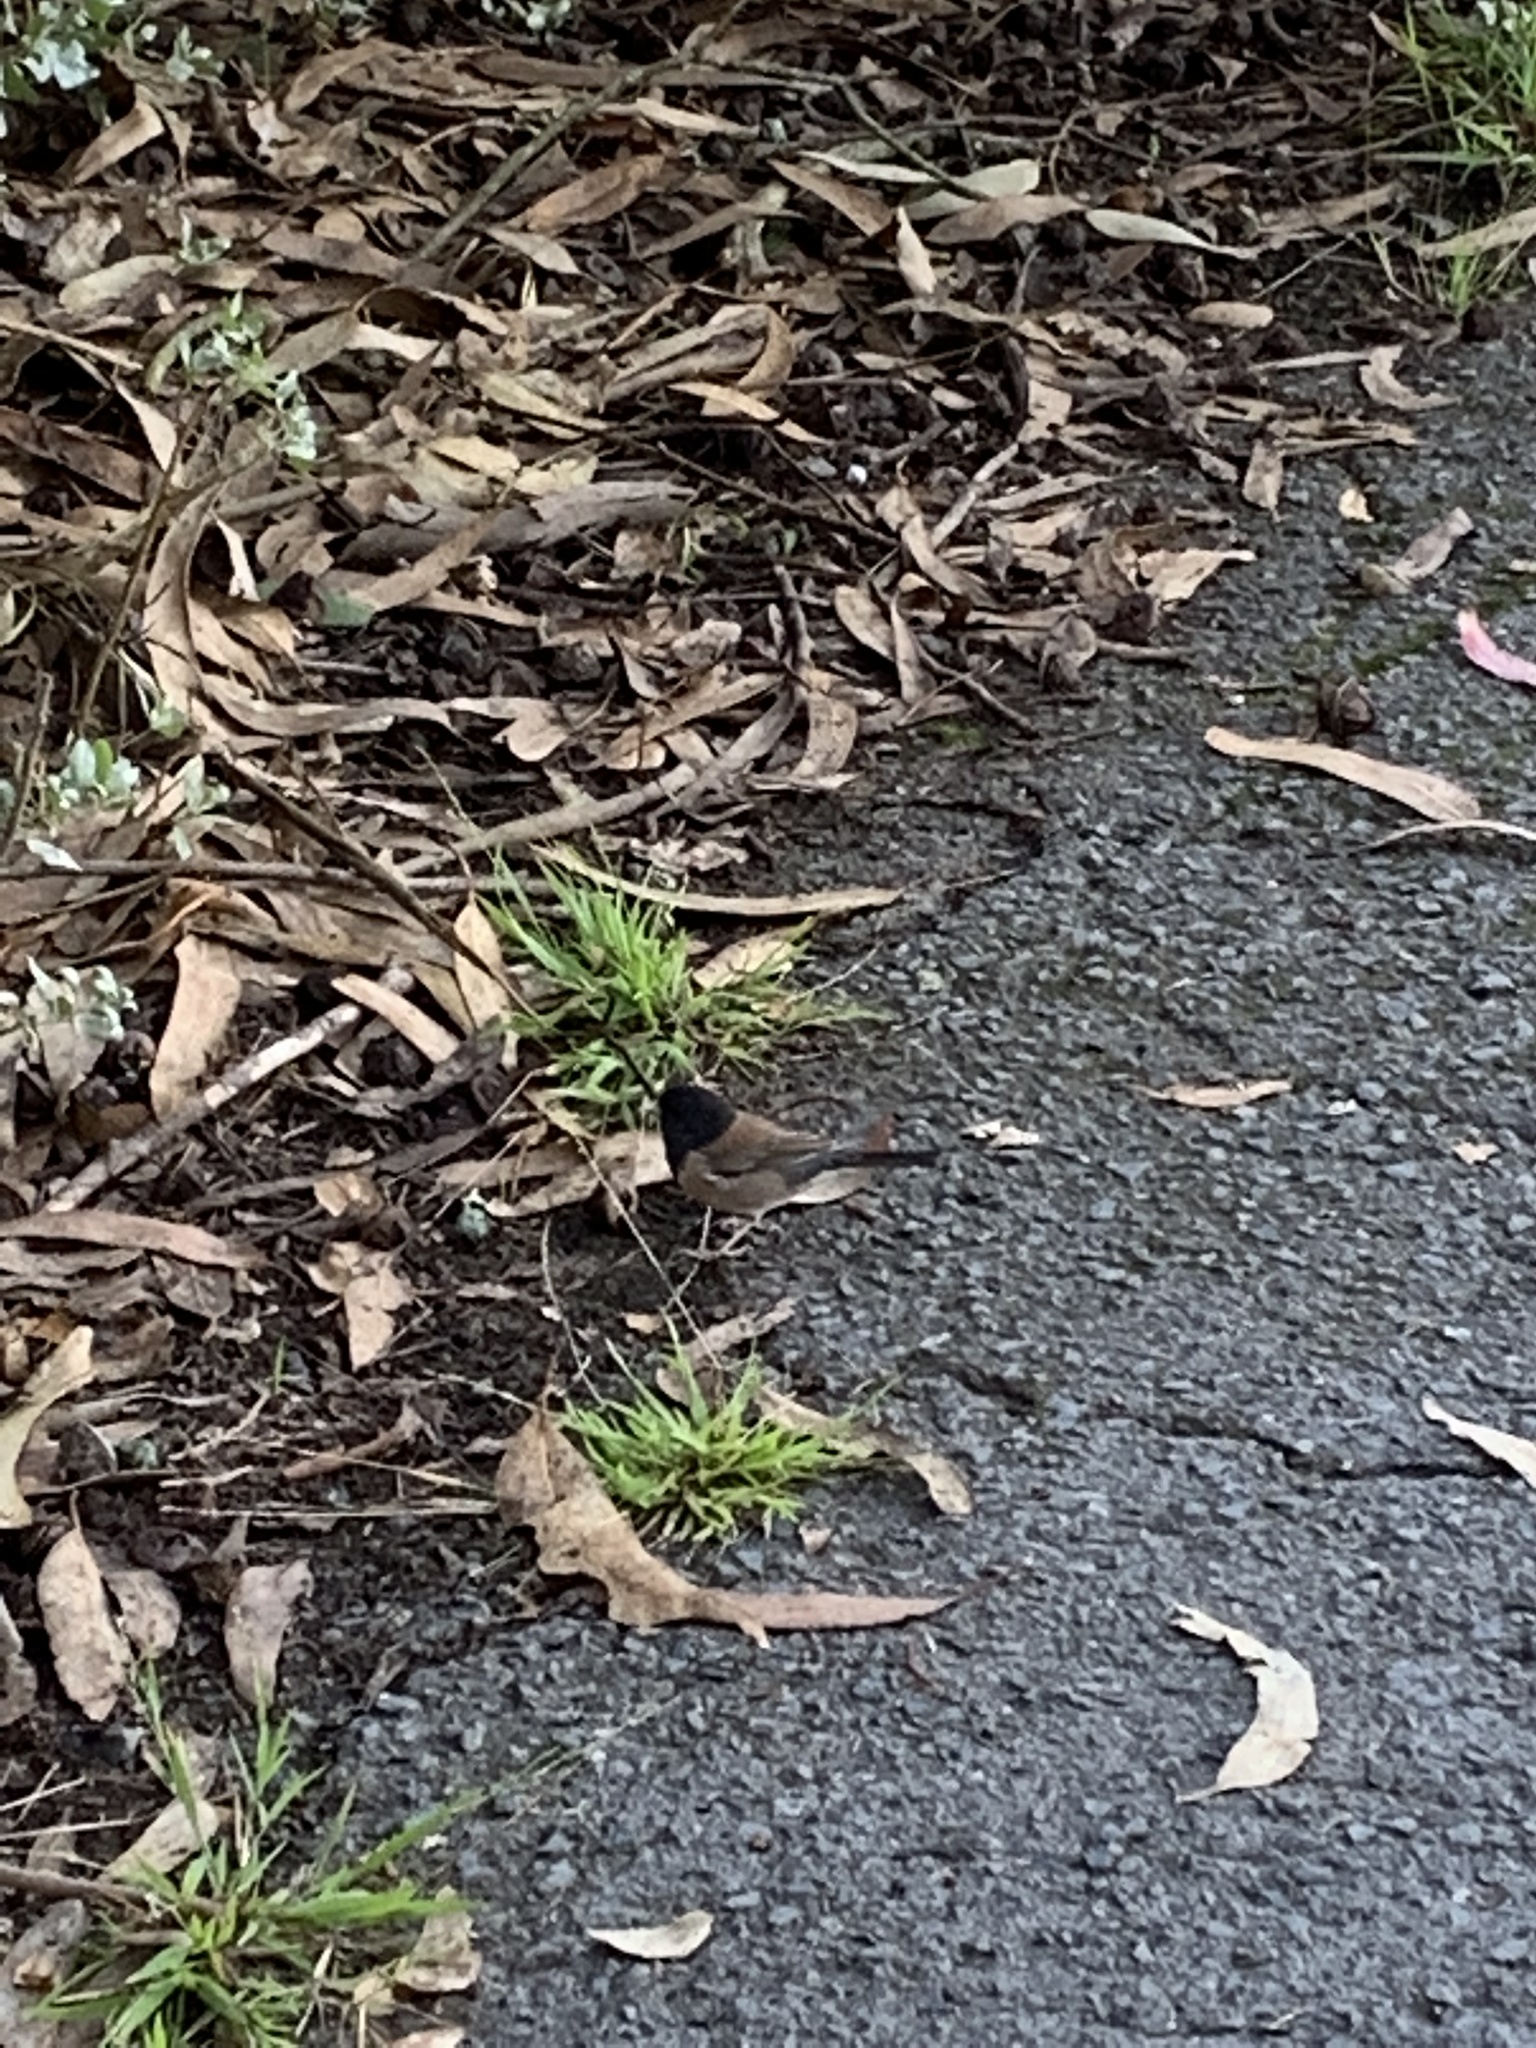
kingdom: Animalia
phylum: Chordata
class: Aves
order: Passeriformes
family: Passerellidae
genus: Junco
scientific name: Junco hyemalis
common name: Dark-eyed junco
